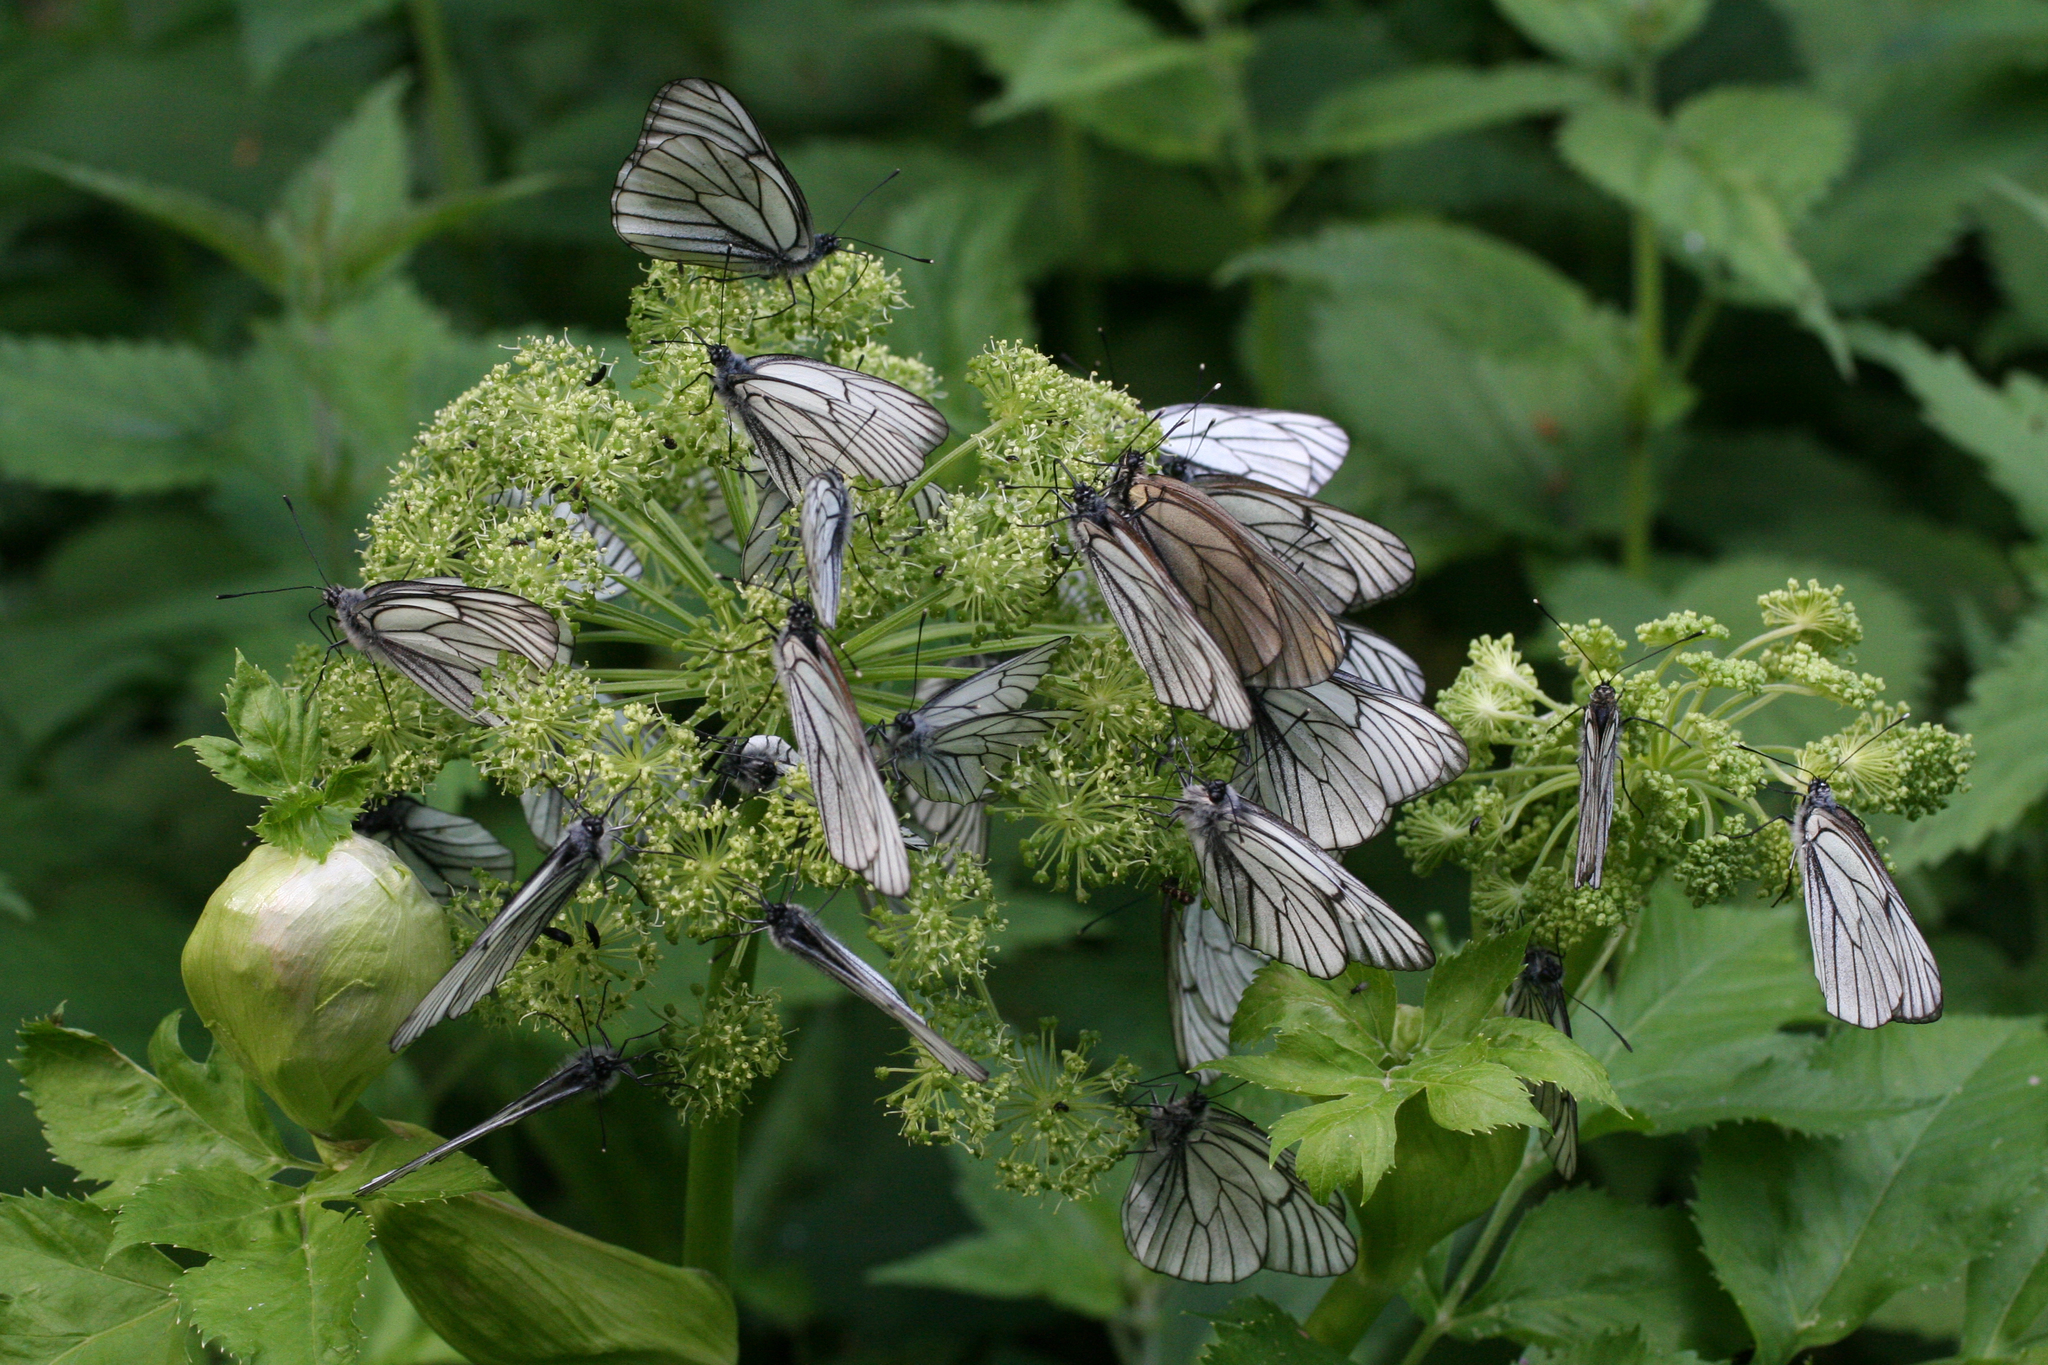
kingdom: Plantae
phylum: Tracheophyta
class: Magnoliopsida
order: Apiales
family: Apiaceae
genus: Angelica
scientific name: Angelica decurrens
